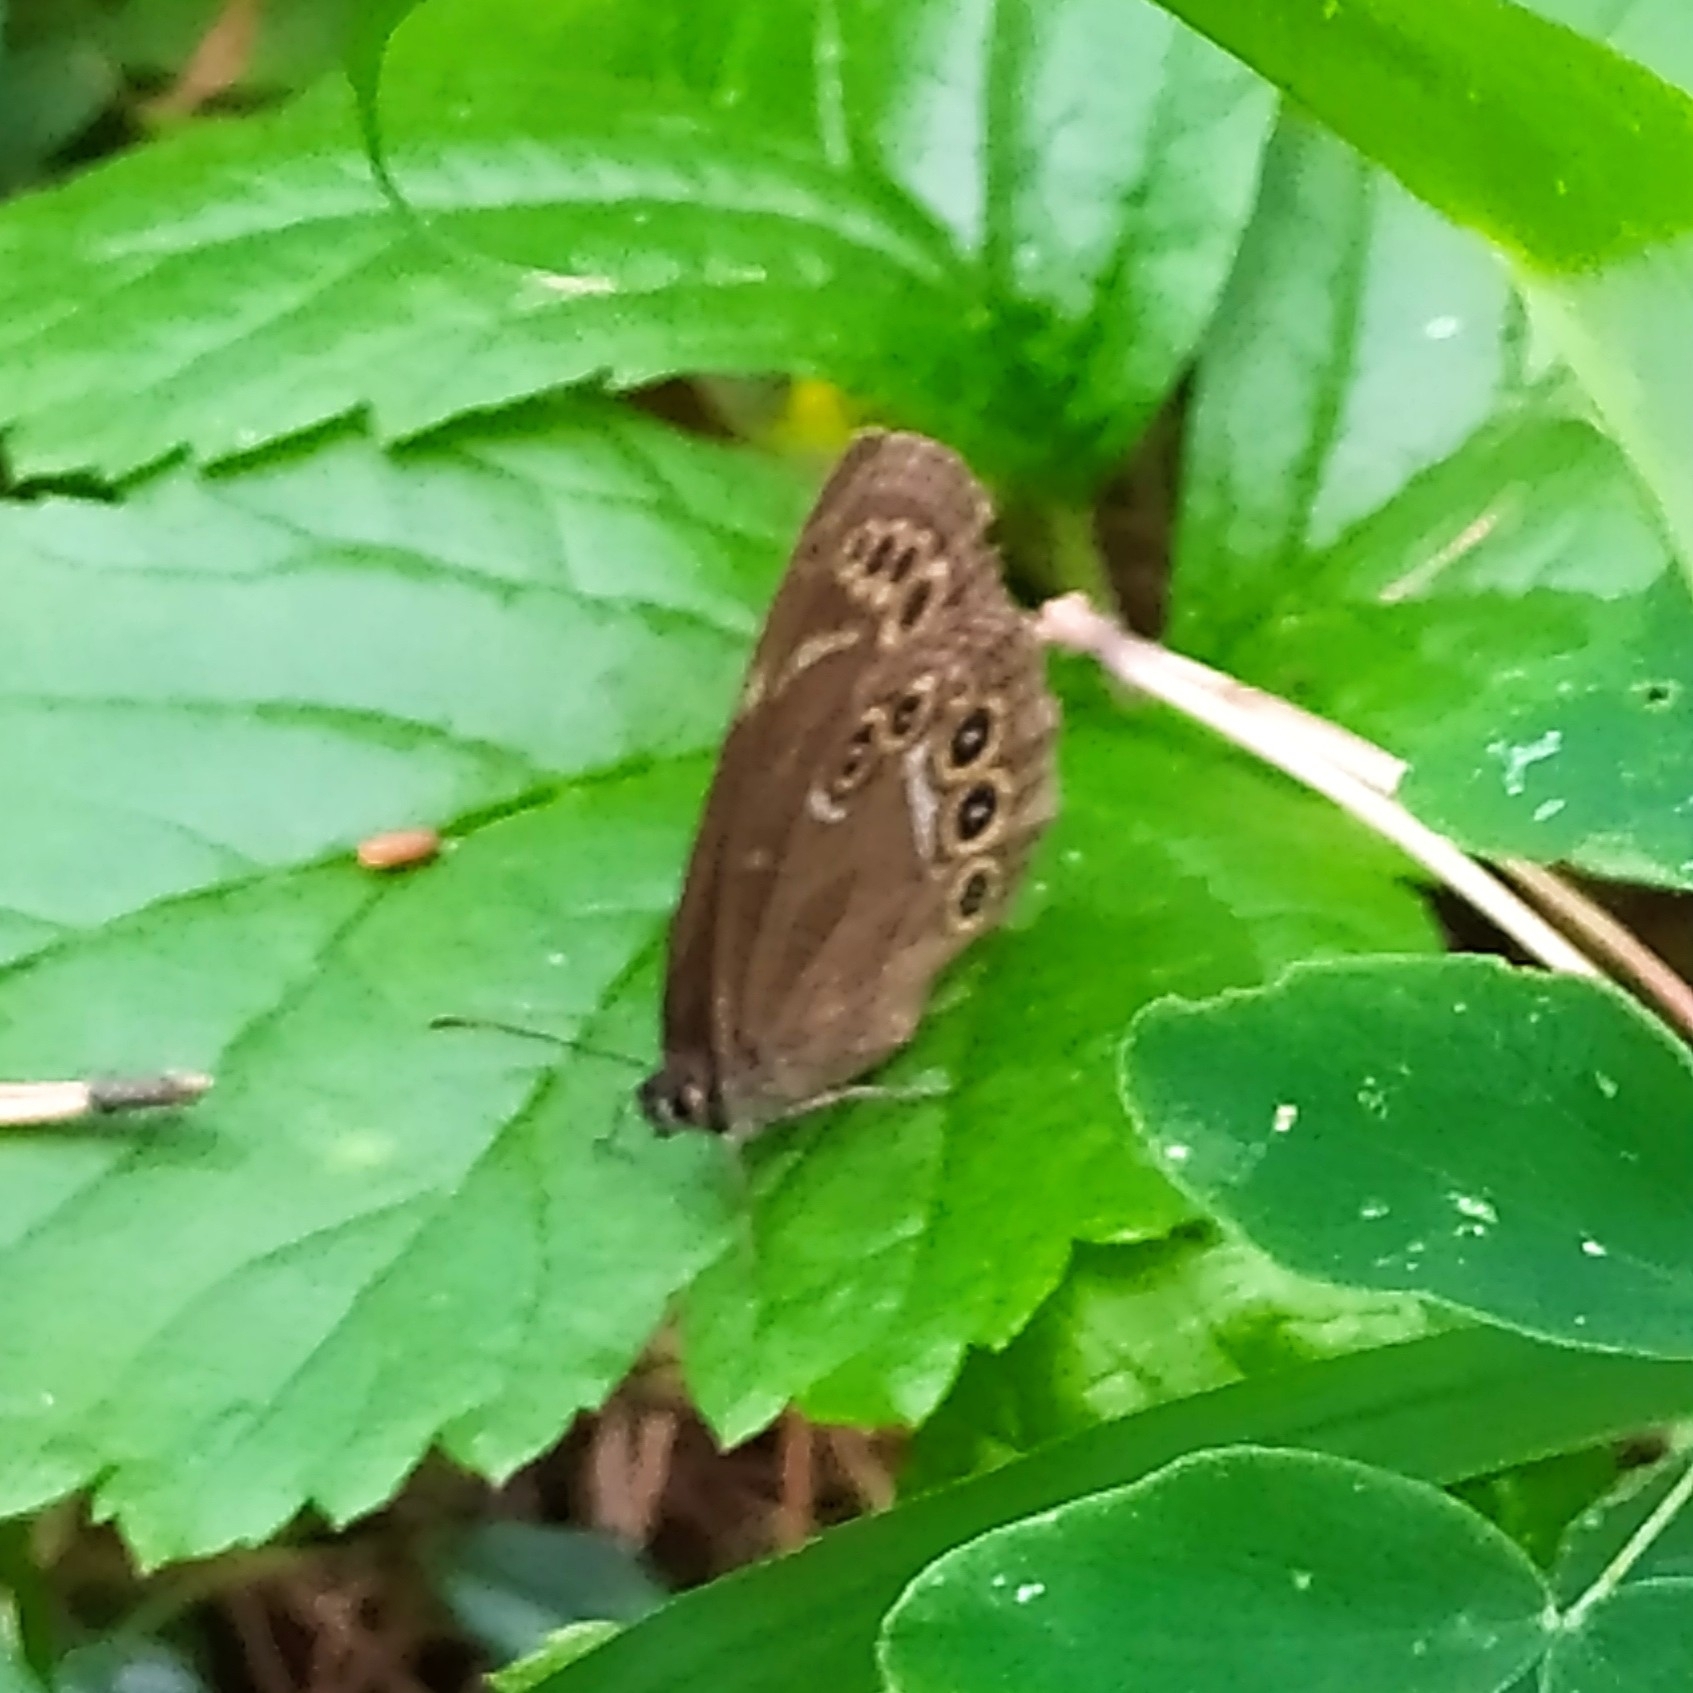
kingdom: Animalia
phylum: Arthropoda
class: Insecta
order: Lepidoptera
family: Nymphalidae
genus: Pararge
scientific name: Pararge Lopinga achine
